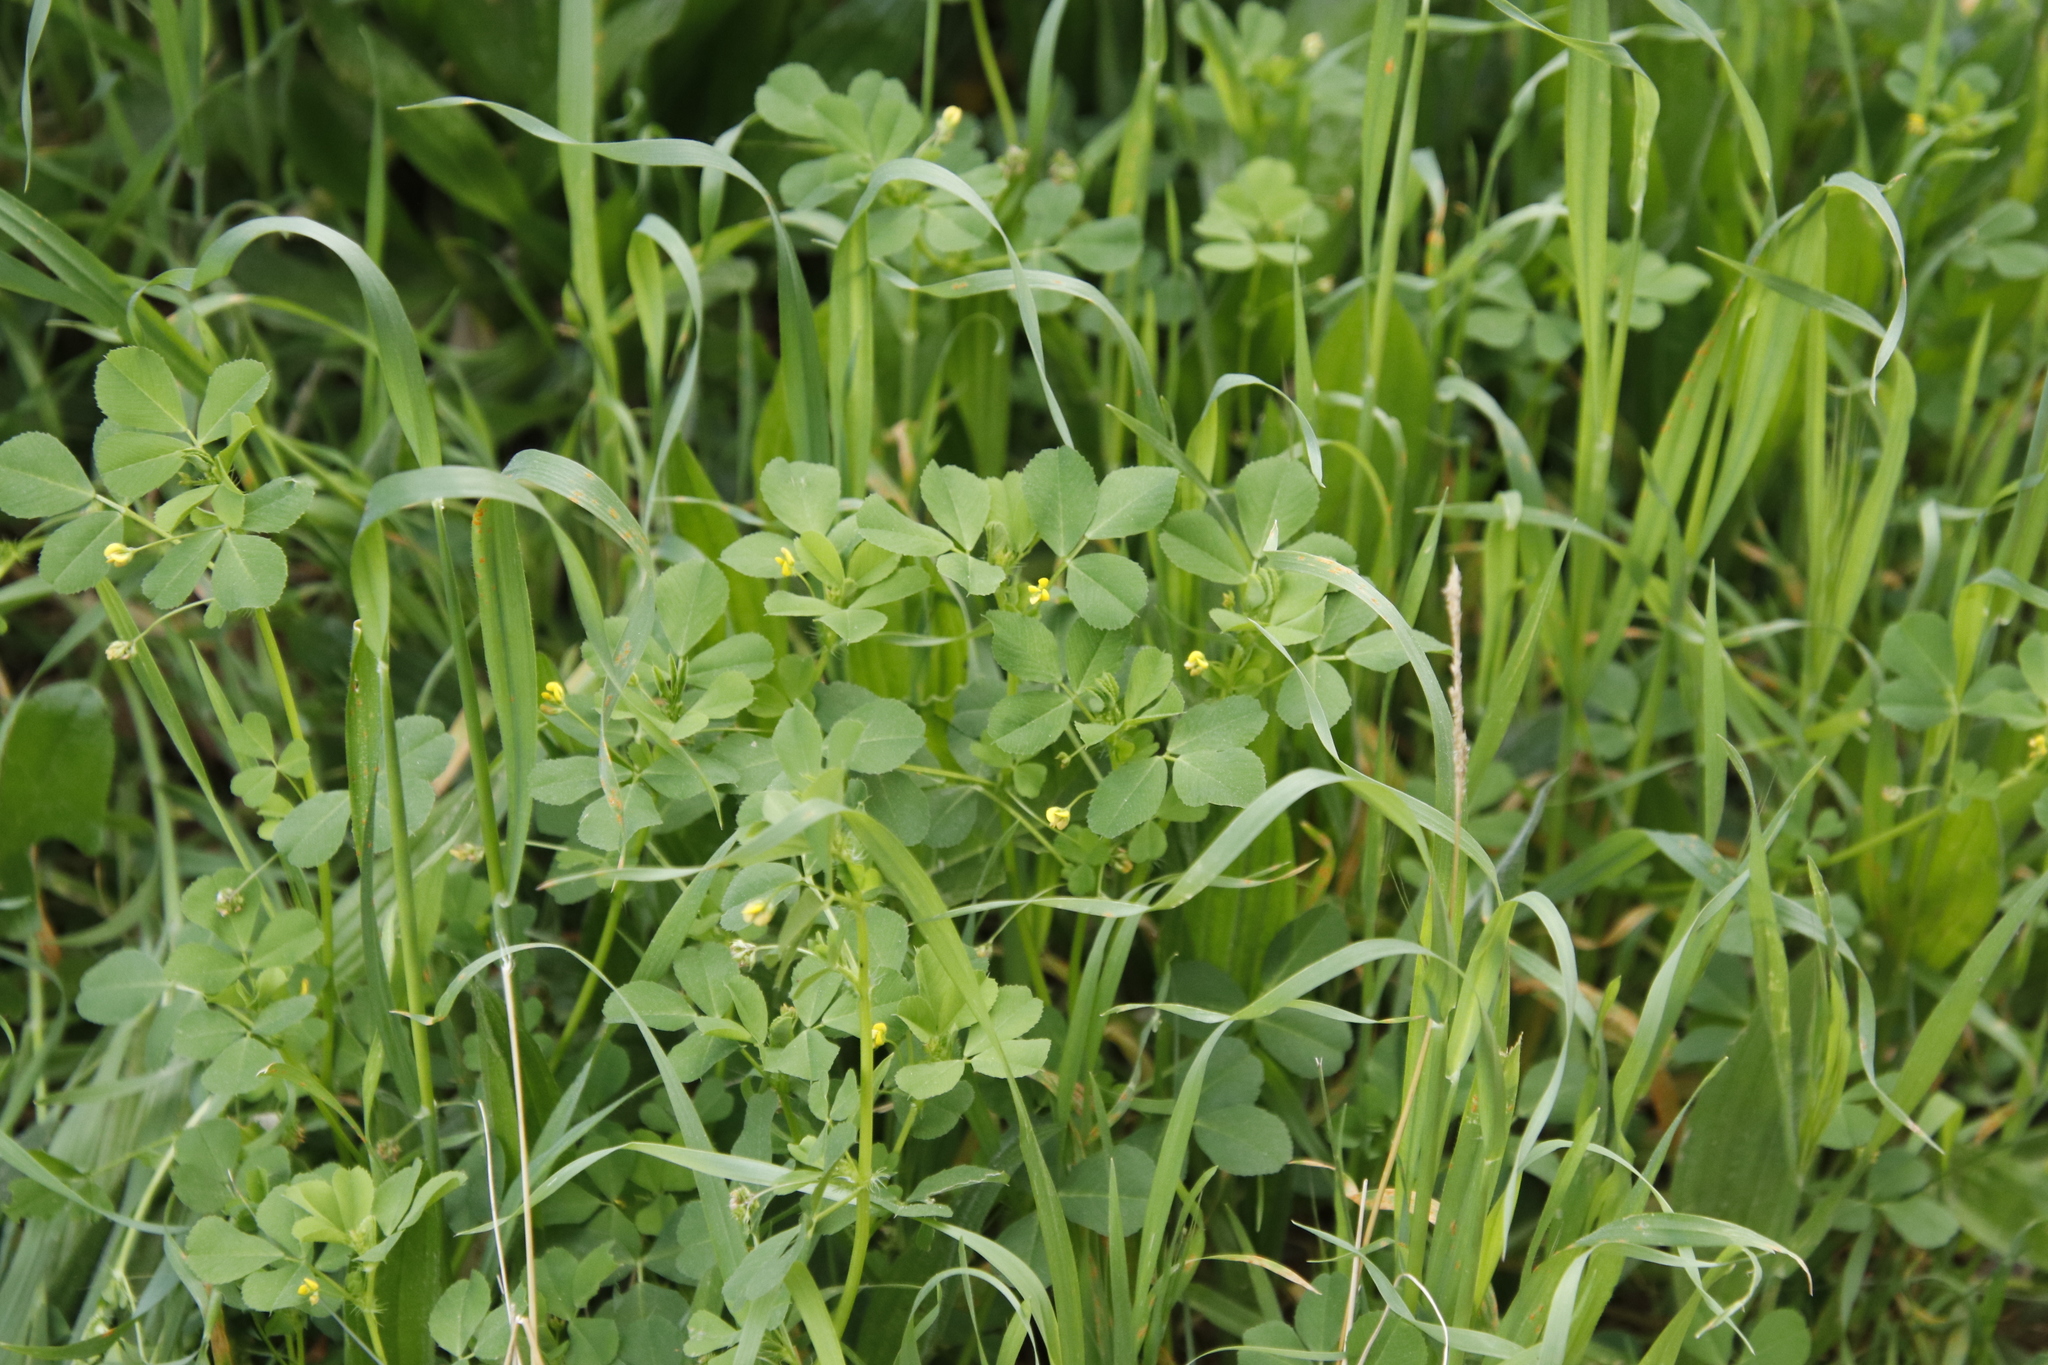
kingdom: Plantae
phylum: Tracheophyta
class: Magnoliopsida
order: Fabales
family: Fabaceae
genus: Medicago
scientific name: Medicago polymorpha
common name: Burclover
